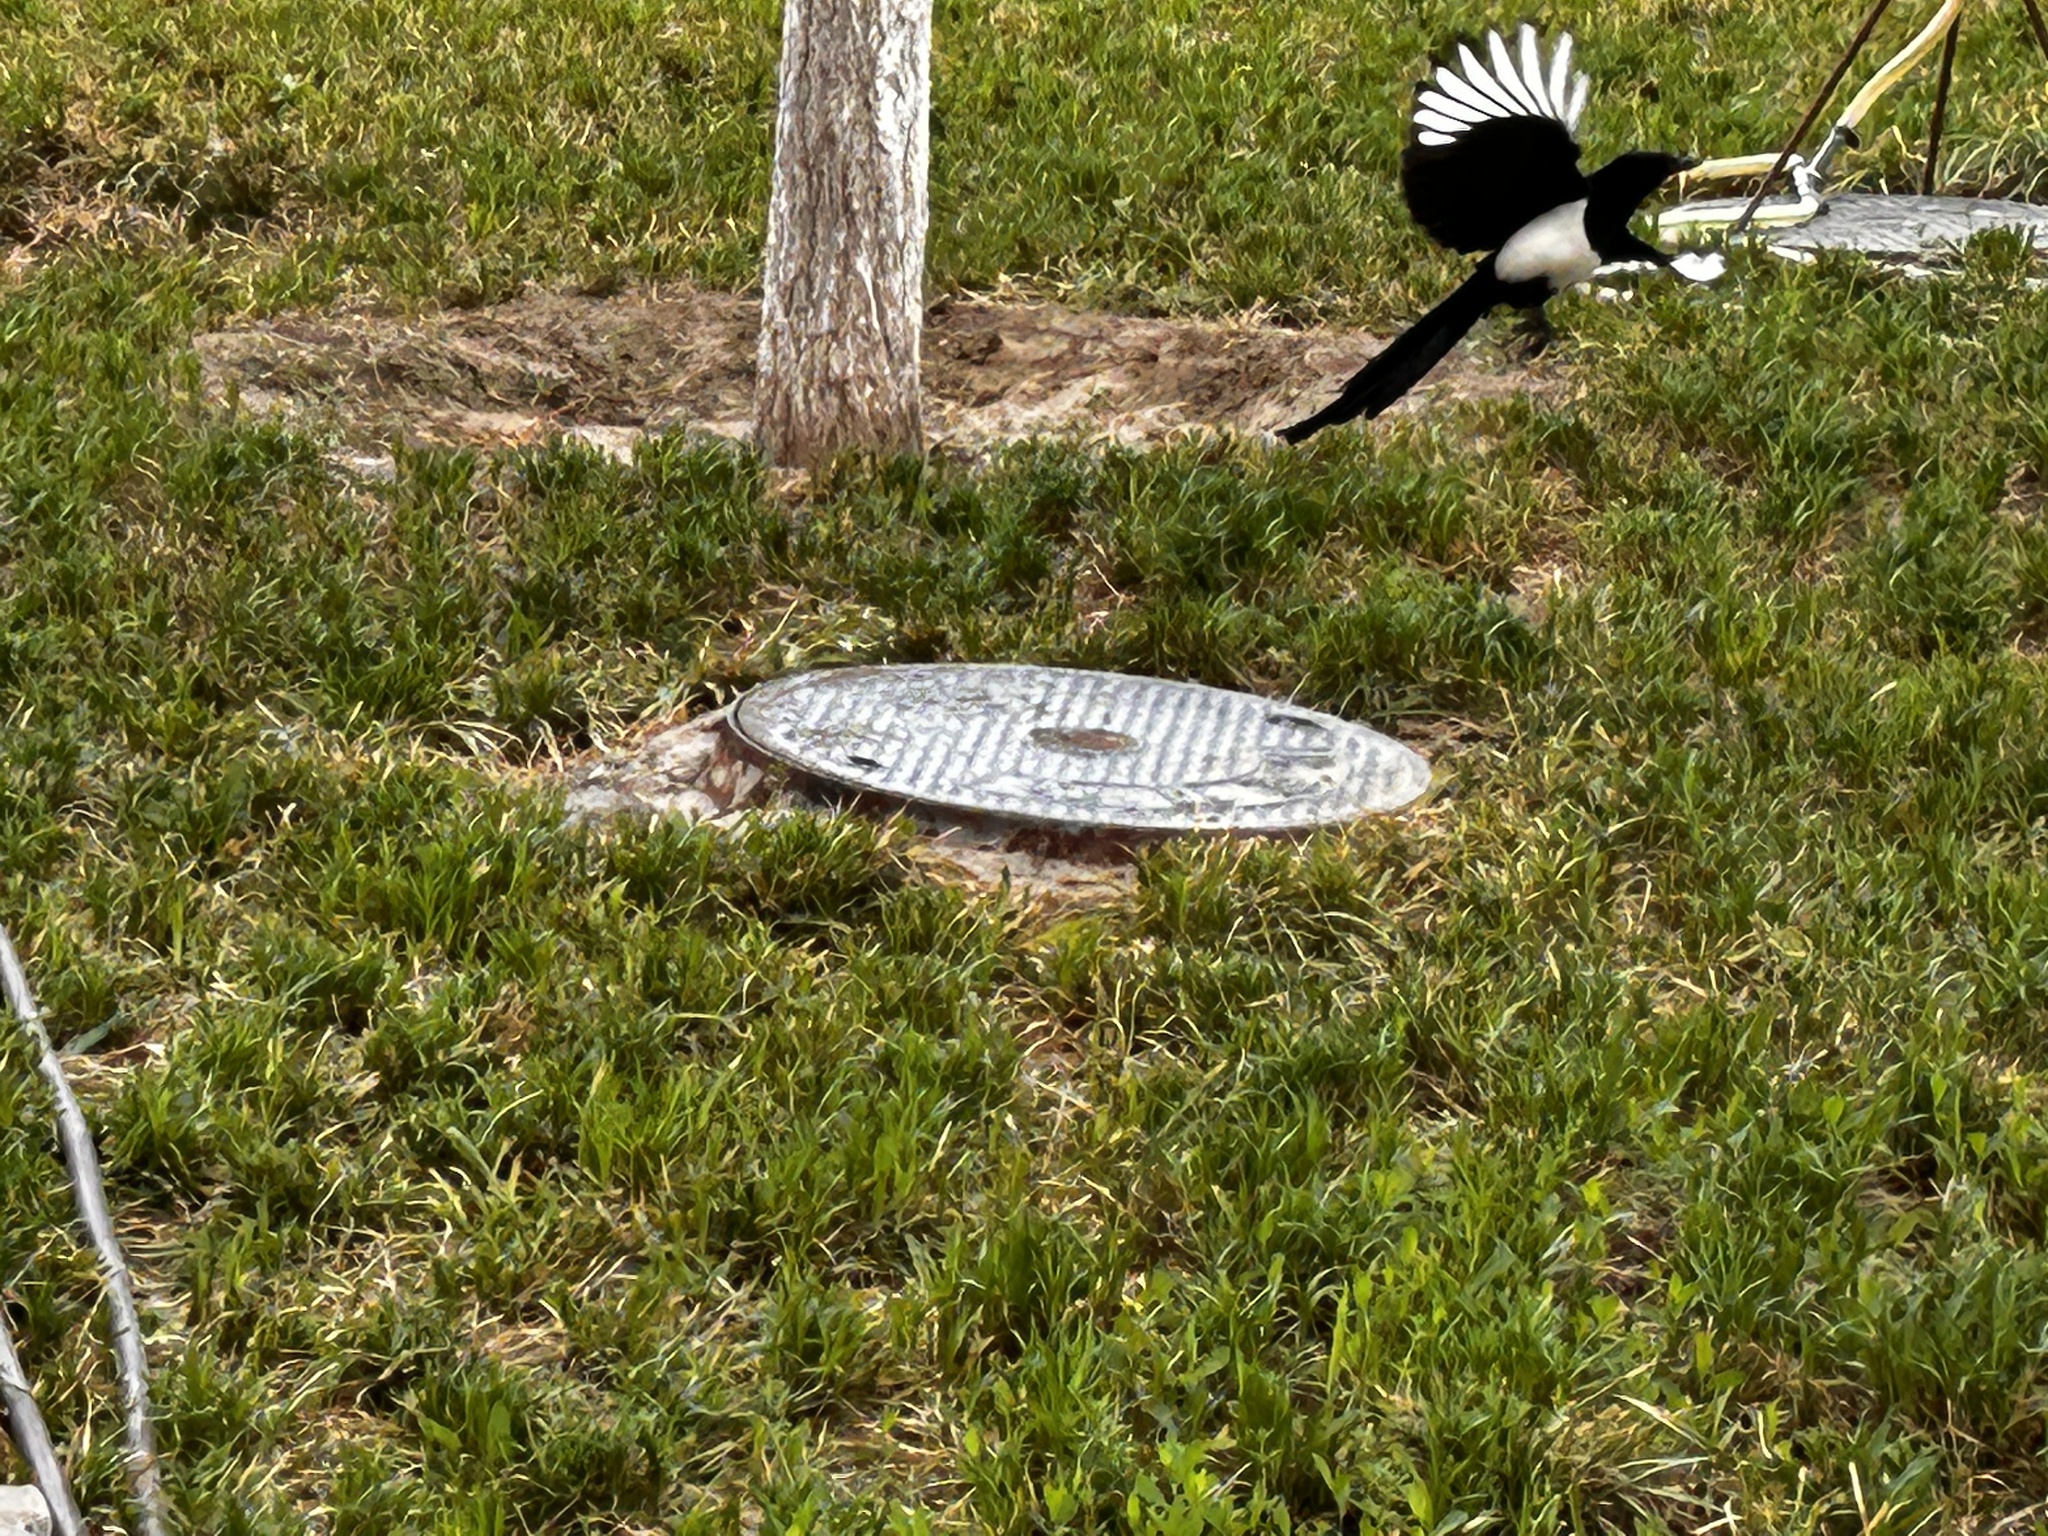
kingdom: Animalia
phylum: Chordata
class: Aves
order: Passeriformes
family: Corvidae
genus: Pica
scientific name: Pica serica
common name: Oriental magpie
